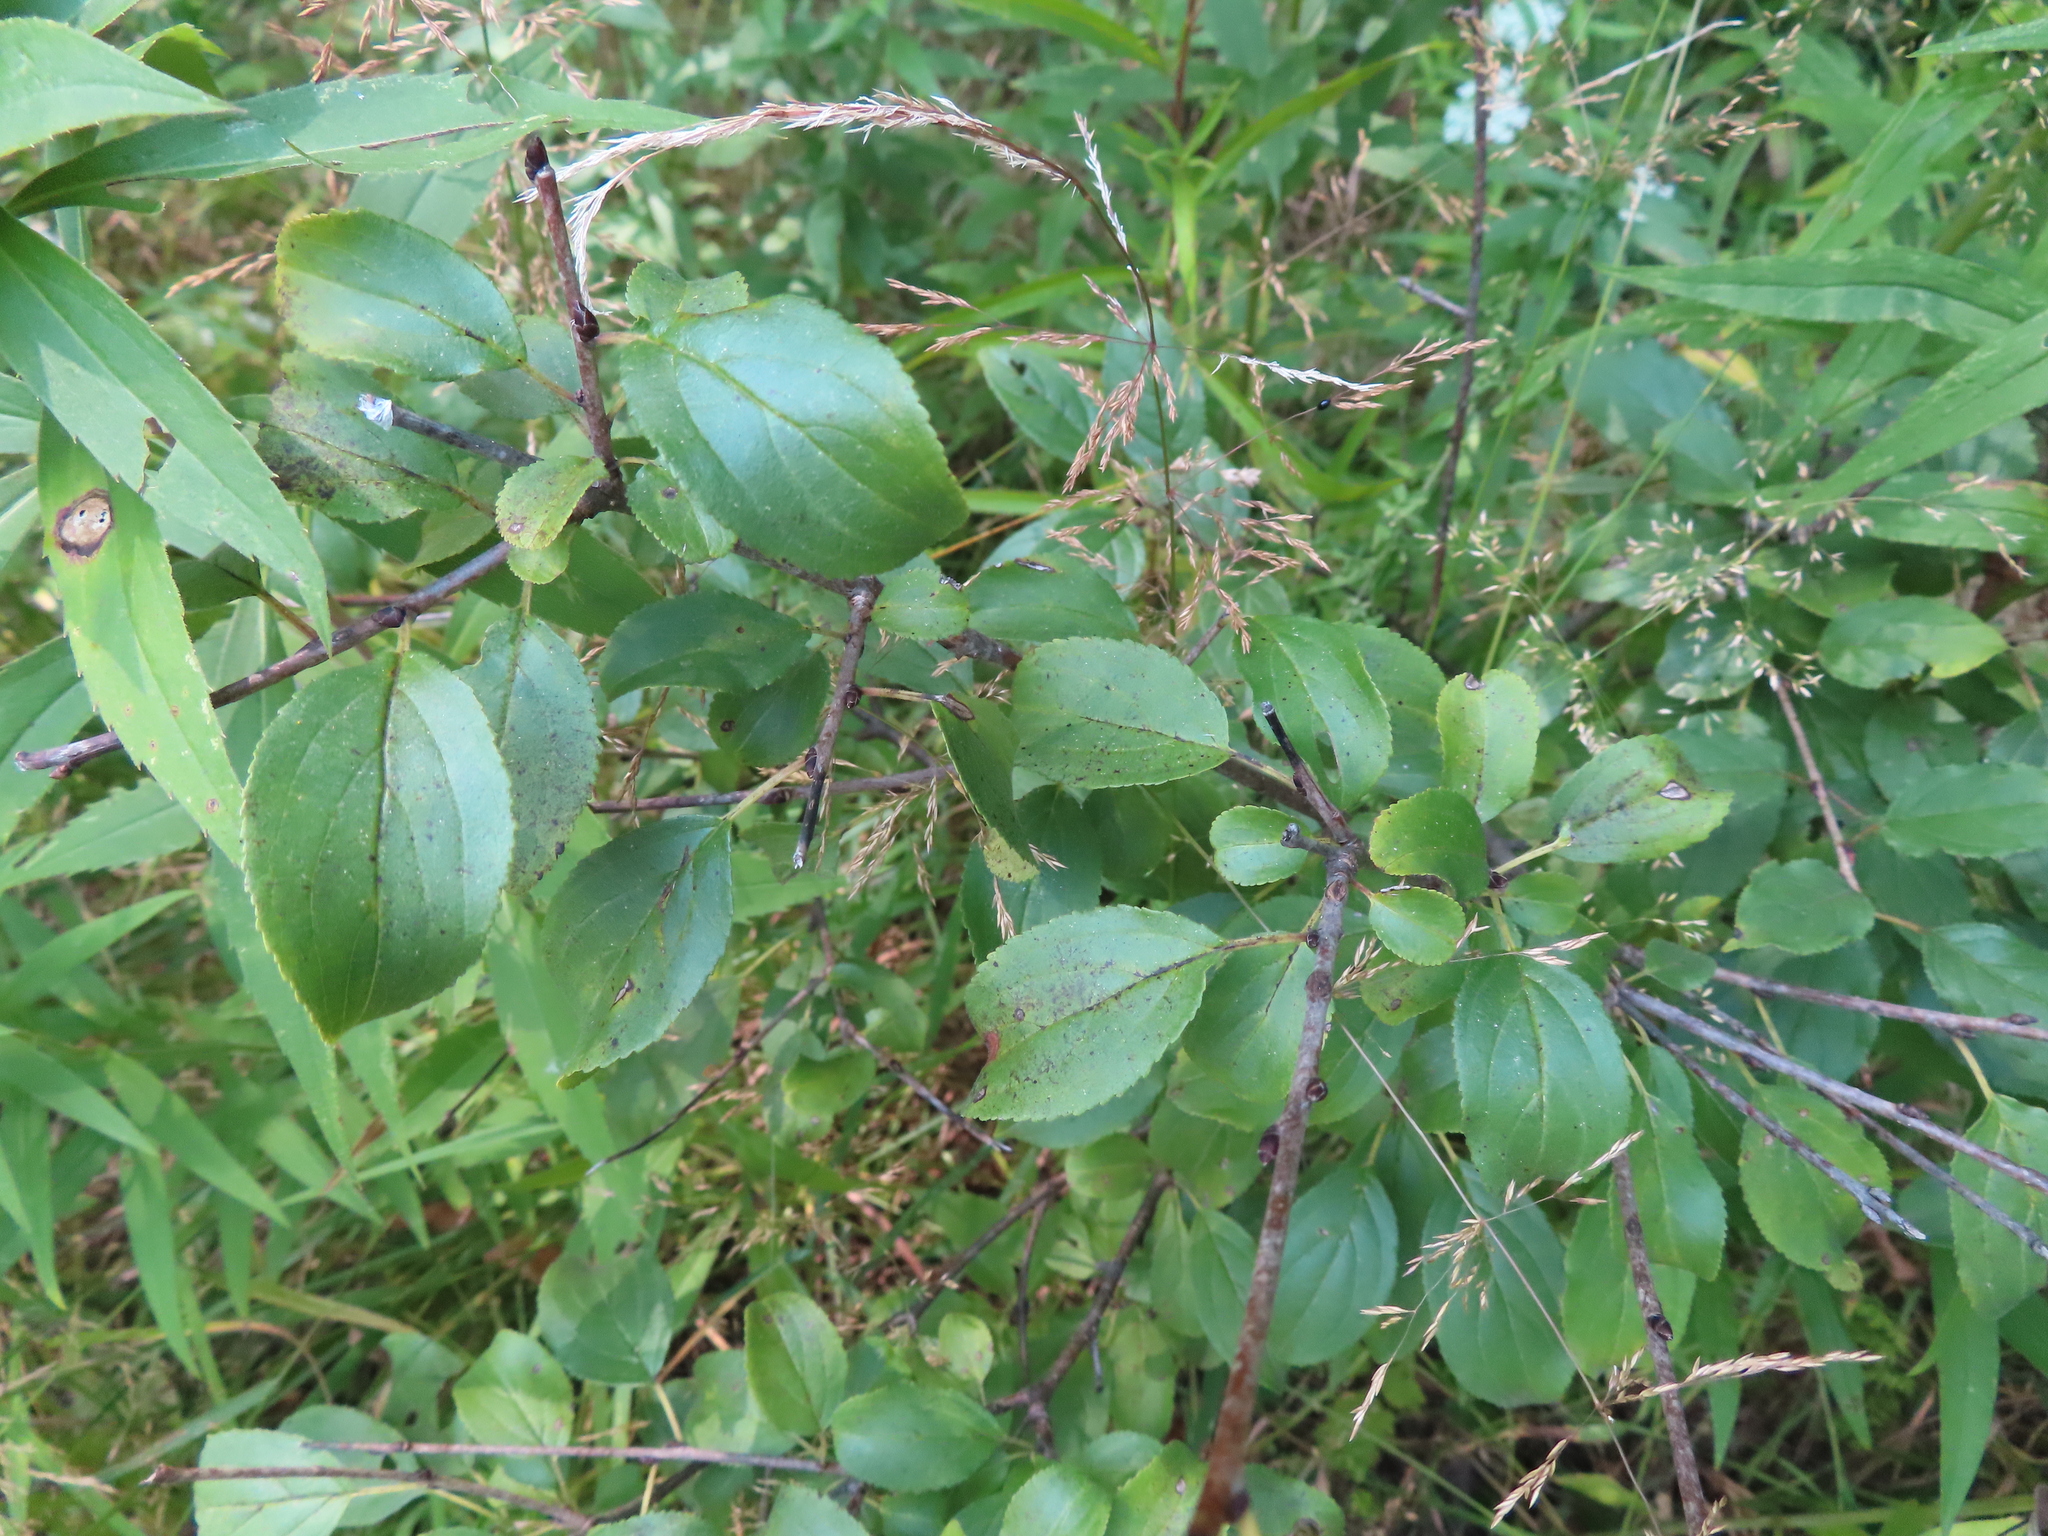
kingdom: Plantae
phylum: Tracheophyta
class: Magnoliopsida
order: Rosales
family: Rhamnaceae
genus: Rhamnus
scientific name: Rhamnus cathartica
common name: Common buckthorn
